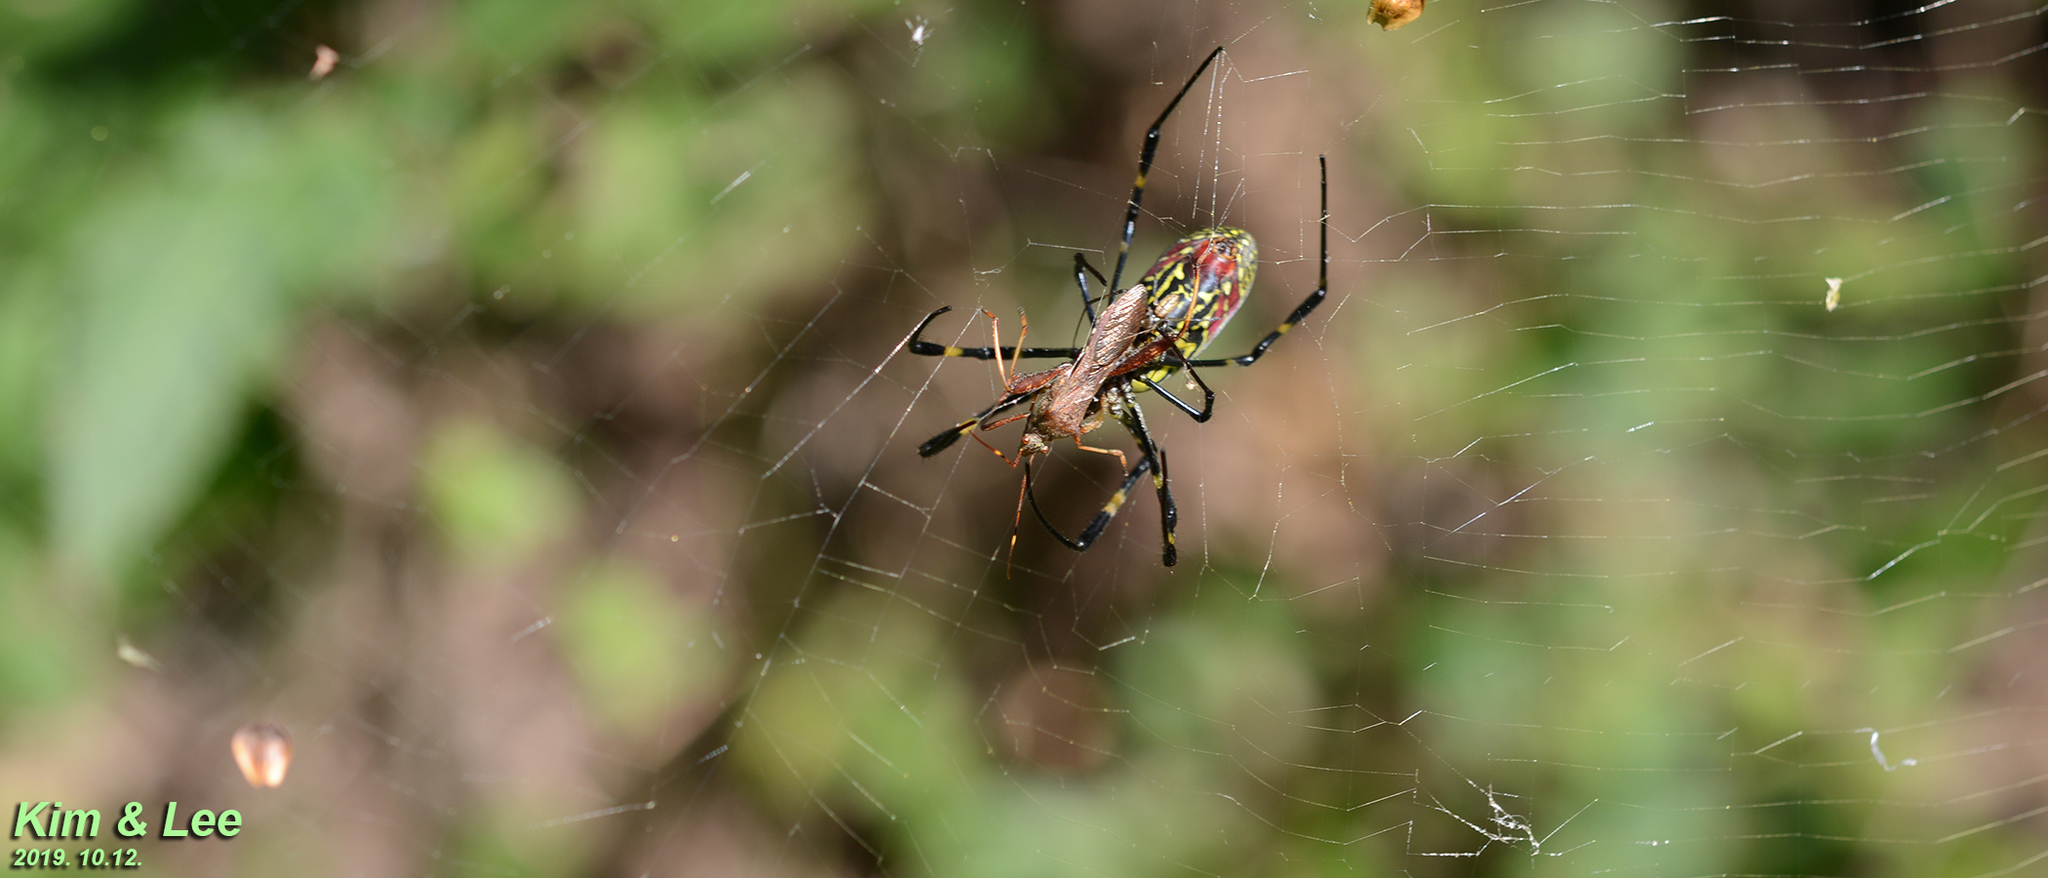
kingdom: Animalia
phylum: Arthropoda
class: Arachnida
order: Araneae
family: Araneidae
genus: Trichonephila
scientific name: Trichonephila clavata
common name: Jorō spider
